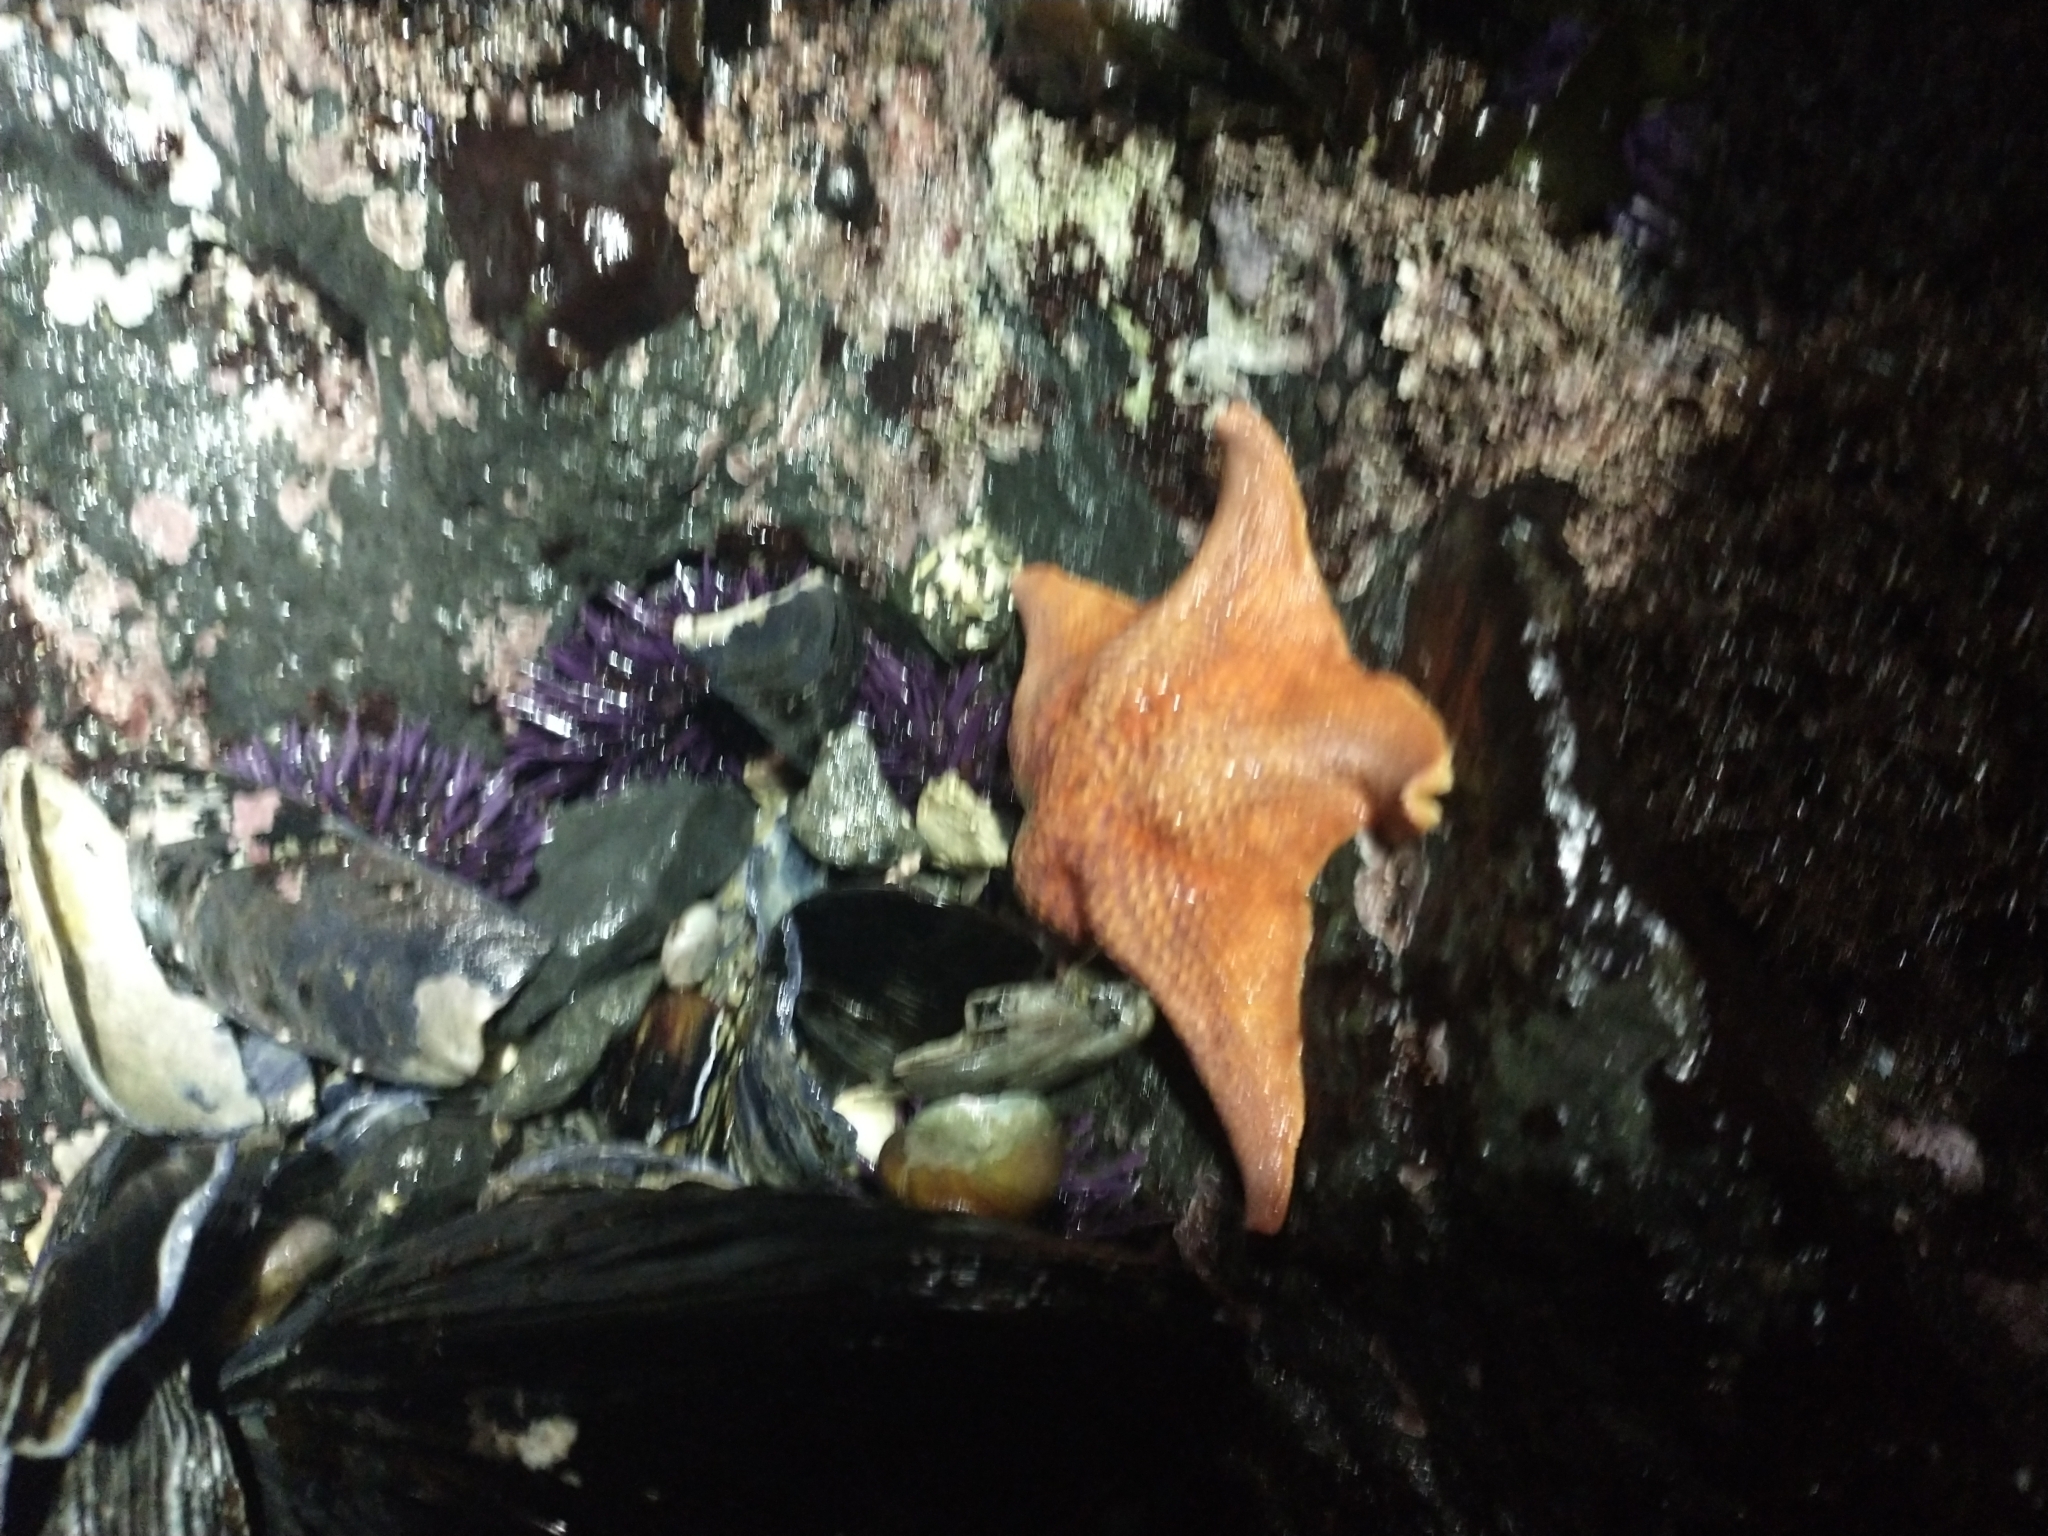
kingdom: Animalia
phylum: Echinodermata
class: Asteroidea
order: Valvatida
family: Asterinidae
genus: Patiria
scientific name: Patiria miniata
